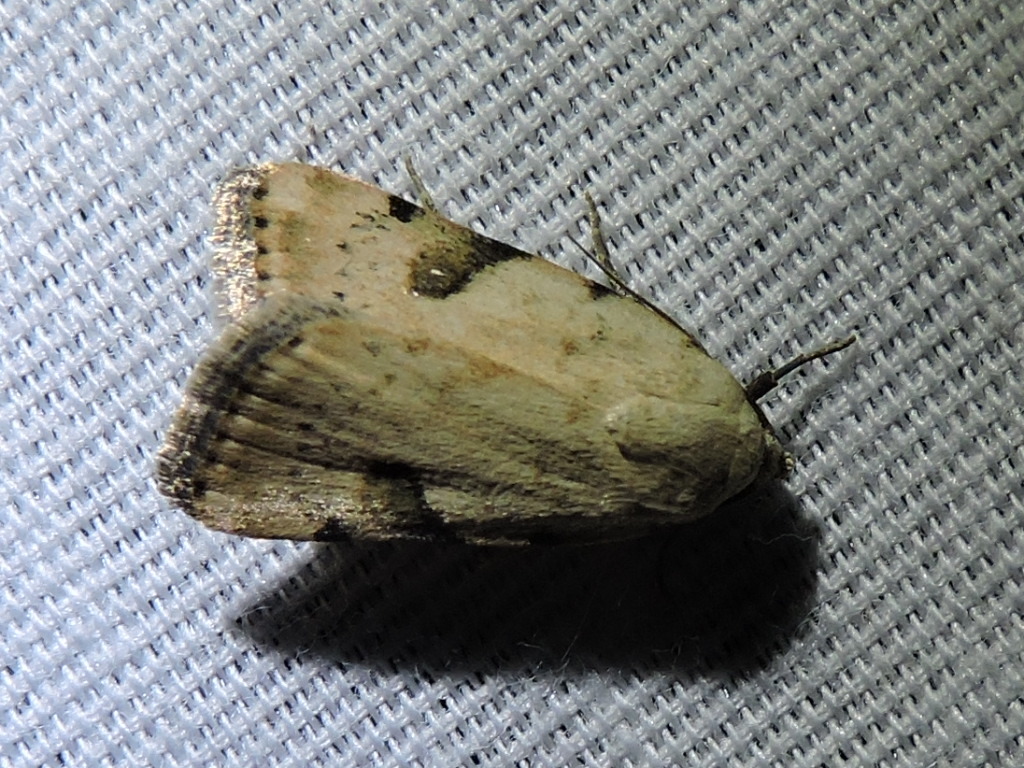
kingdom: Animalia
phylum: Arthropoda
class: Insecta
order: Lepidoptera
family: Noctuidae
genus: Micrathetis
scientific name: Micrathetis costiplaga
